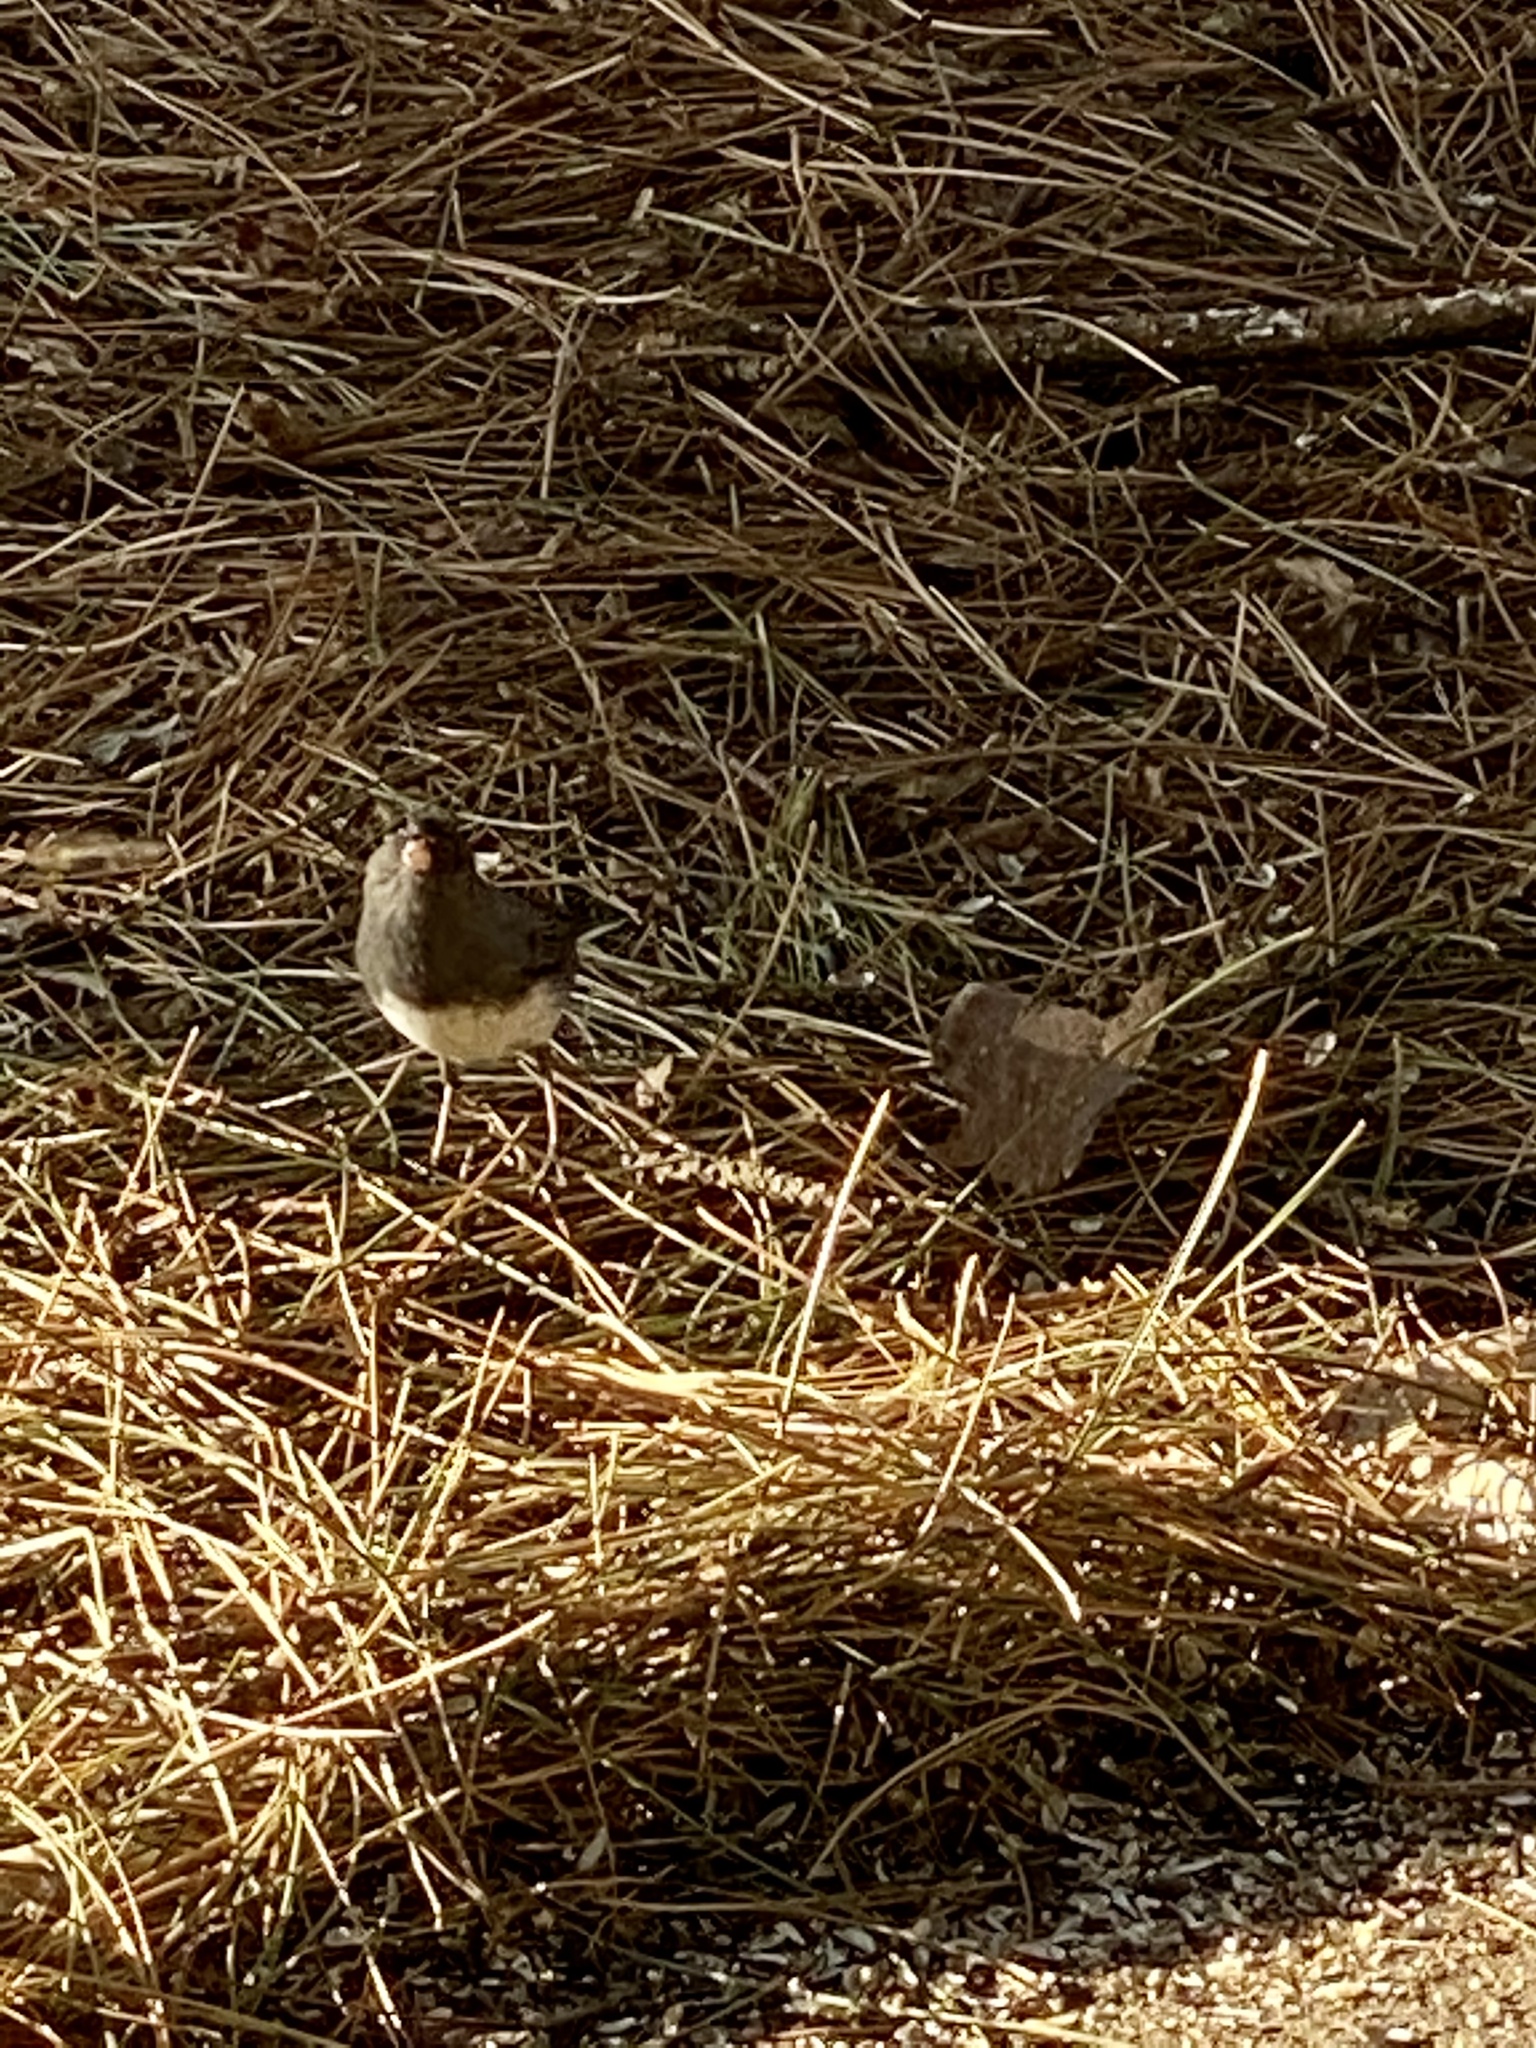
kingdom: Animalia
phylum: Chordata
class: Aves
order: Passeriformes
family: Passerellidae
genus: Junco
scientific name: Junco hyemalis
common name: Dark-eyed junco
